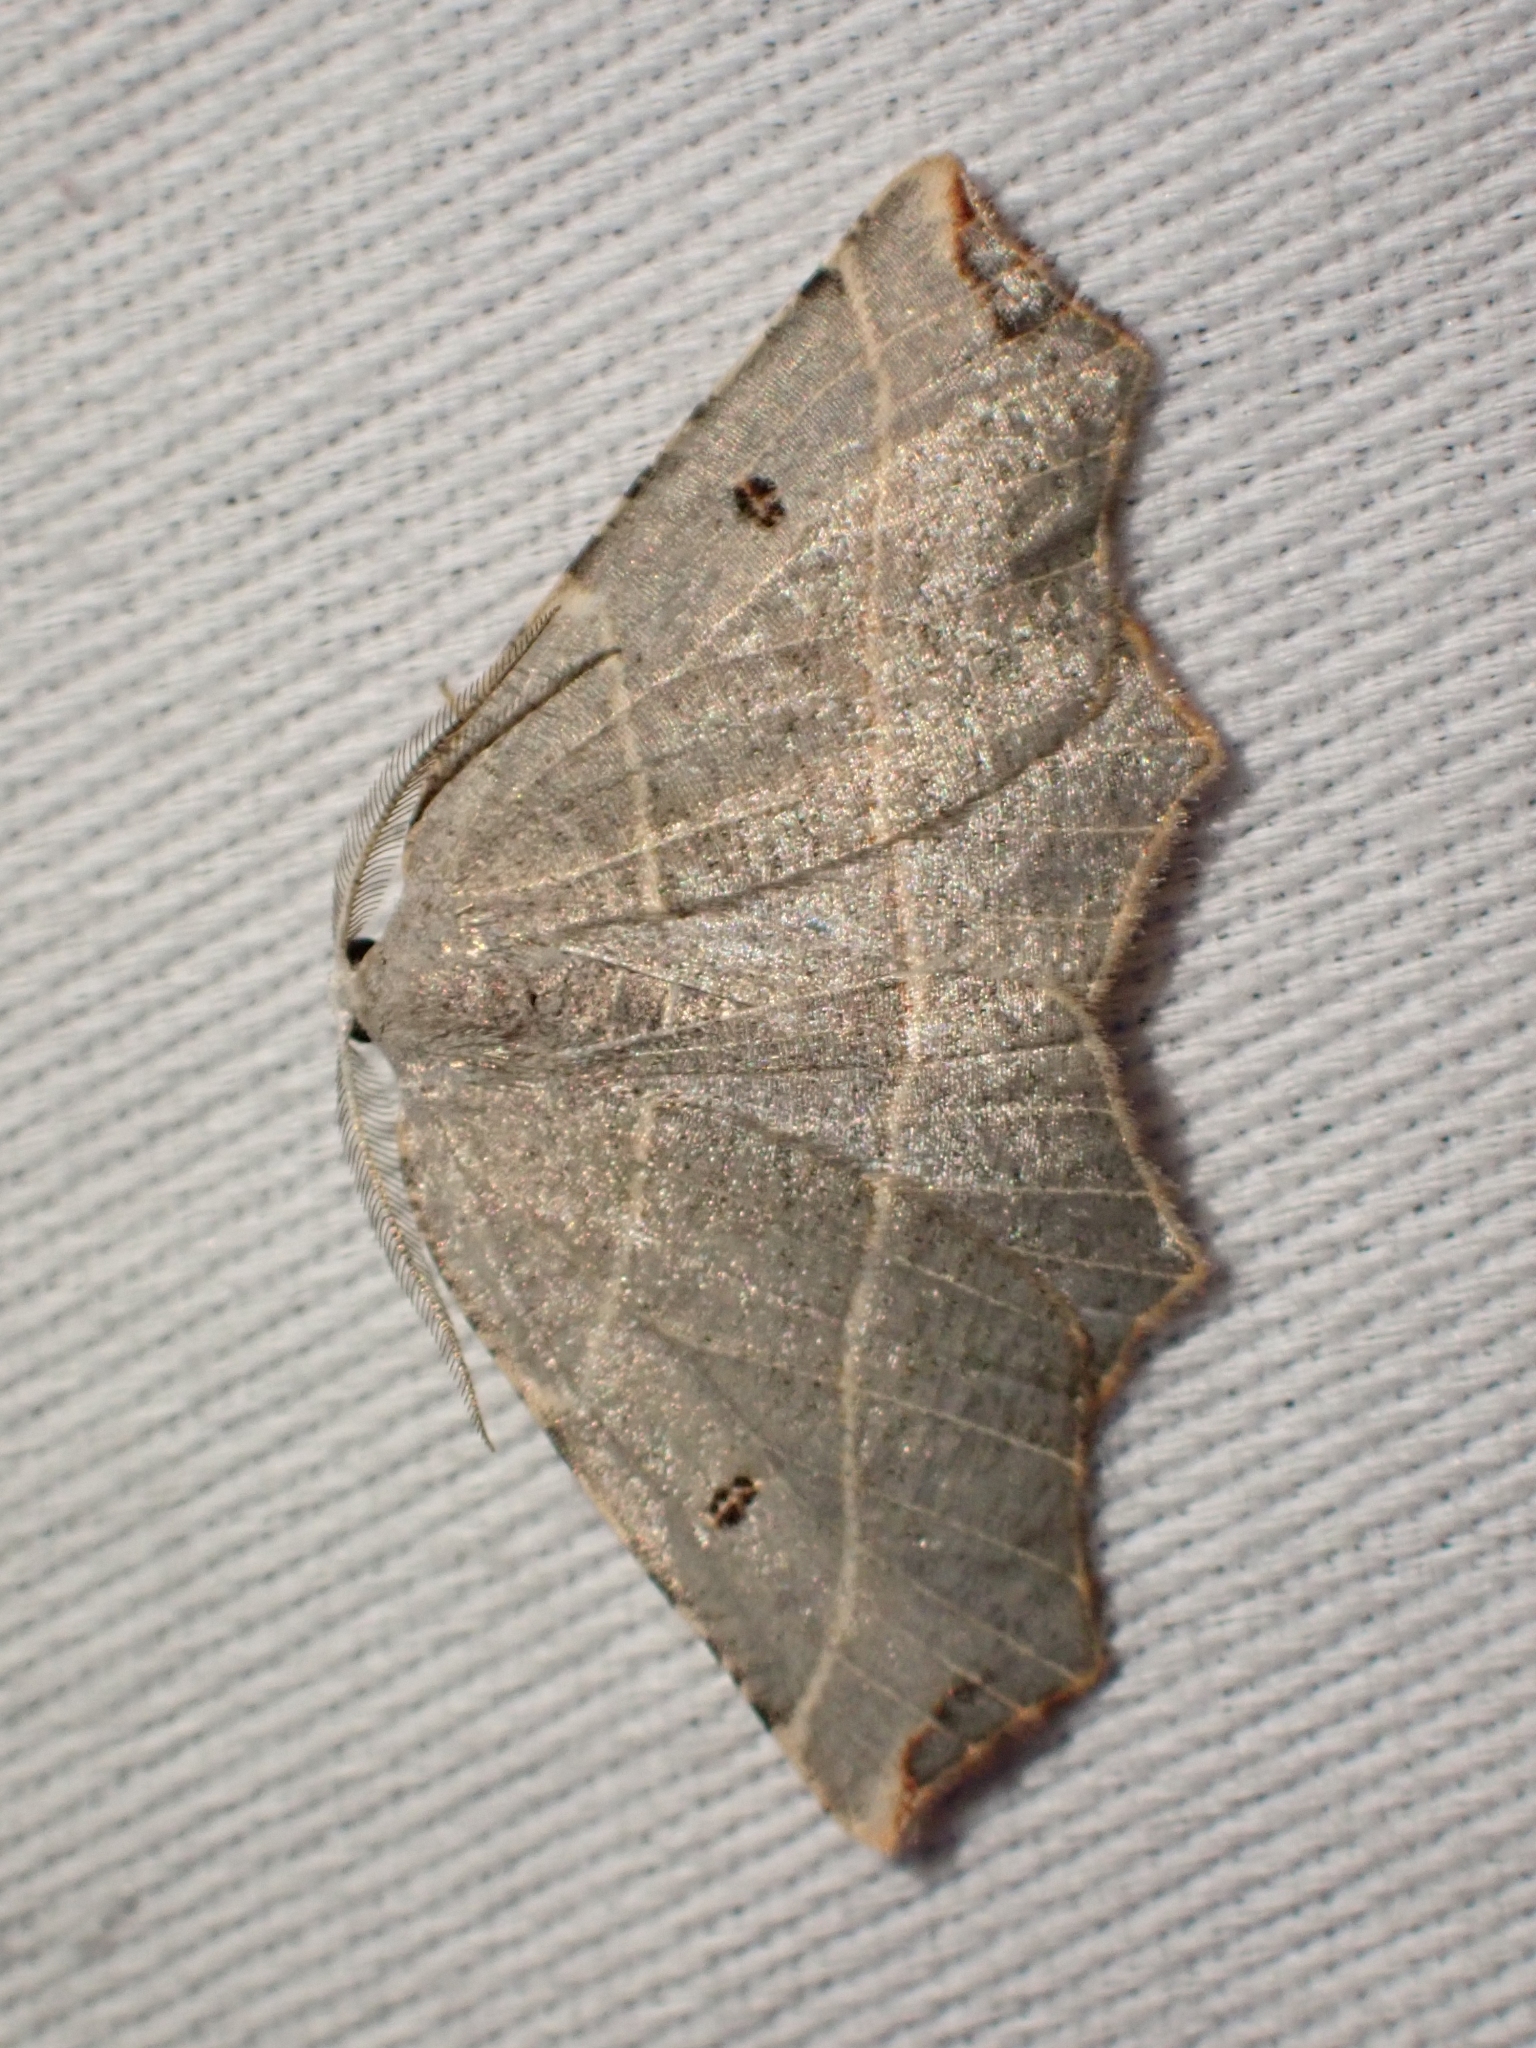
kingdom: Animalia
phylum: Arthropoda
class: Insecta
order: Lepidoptera
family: Geometridae
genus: Metanema
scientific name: Metanema inatomaria
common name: Pale metanema
